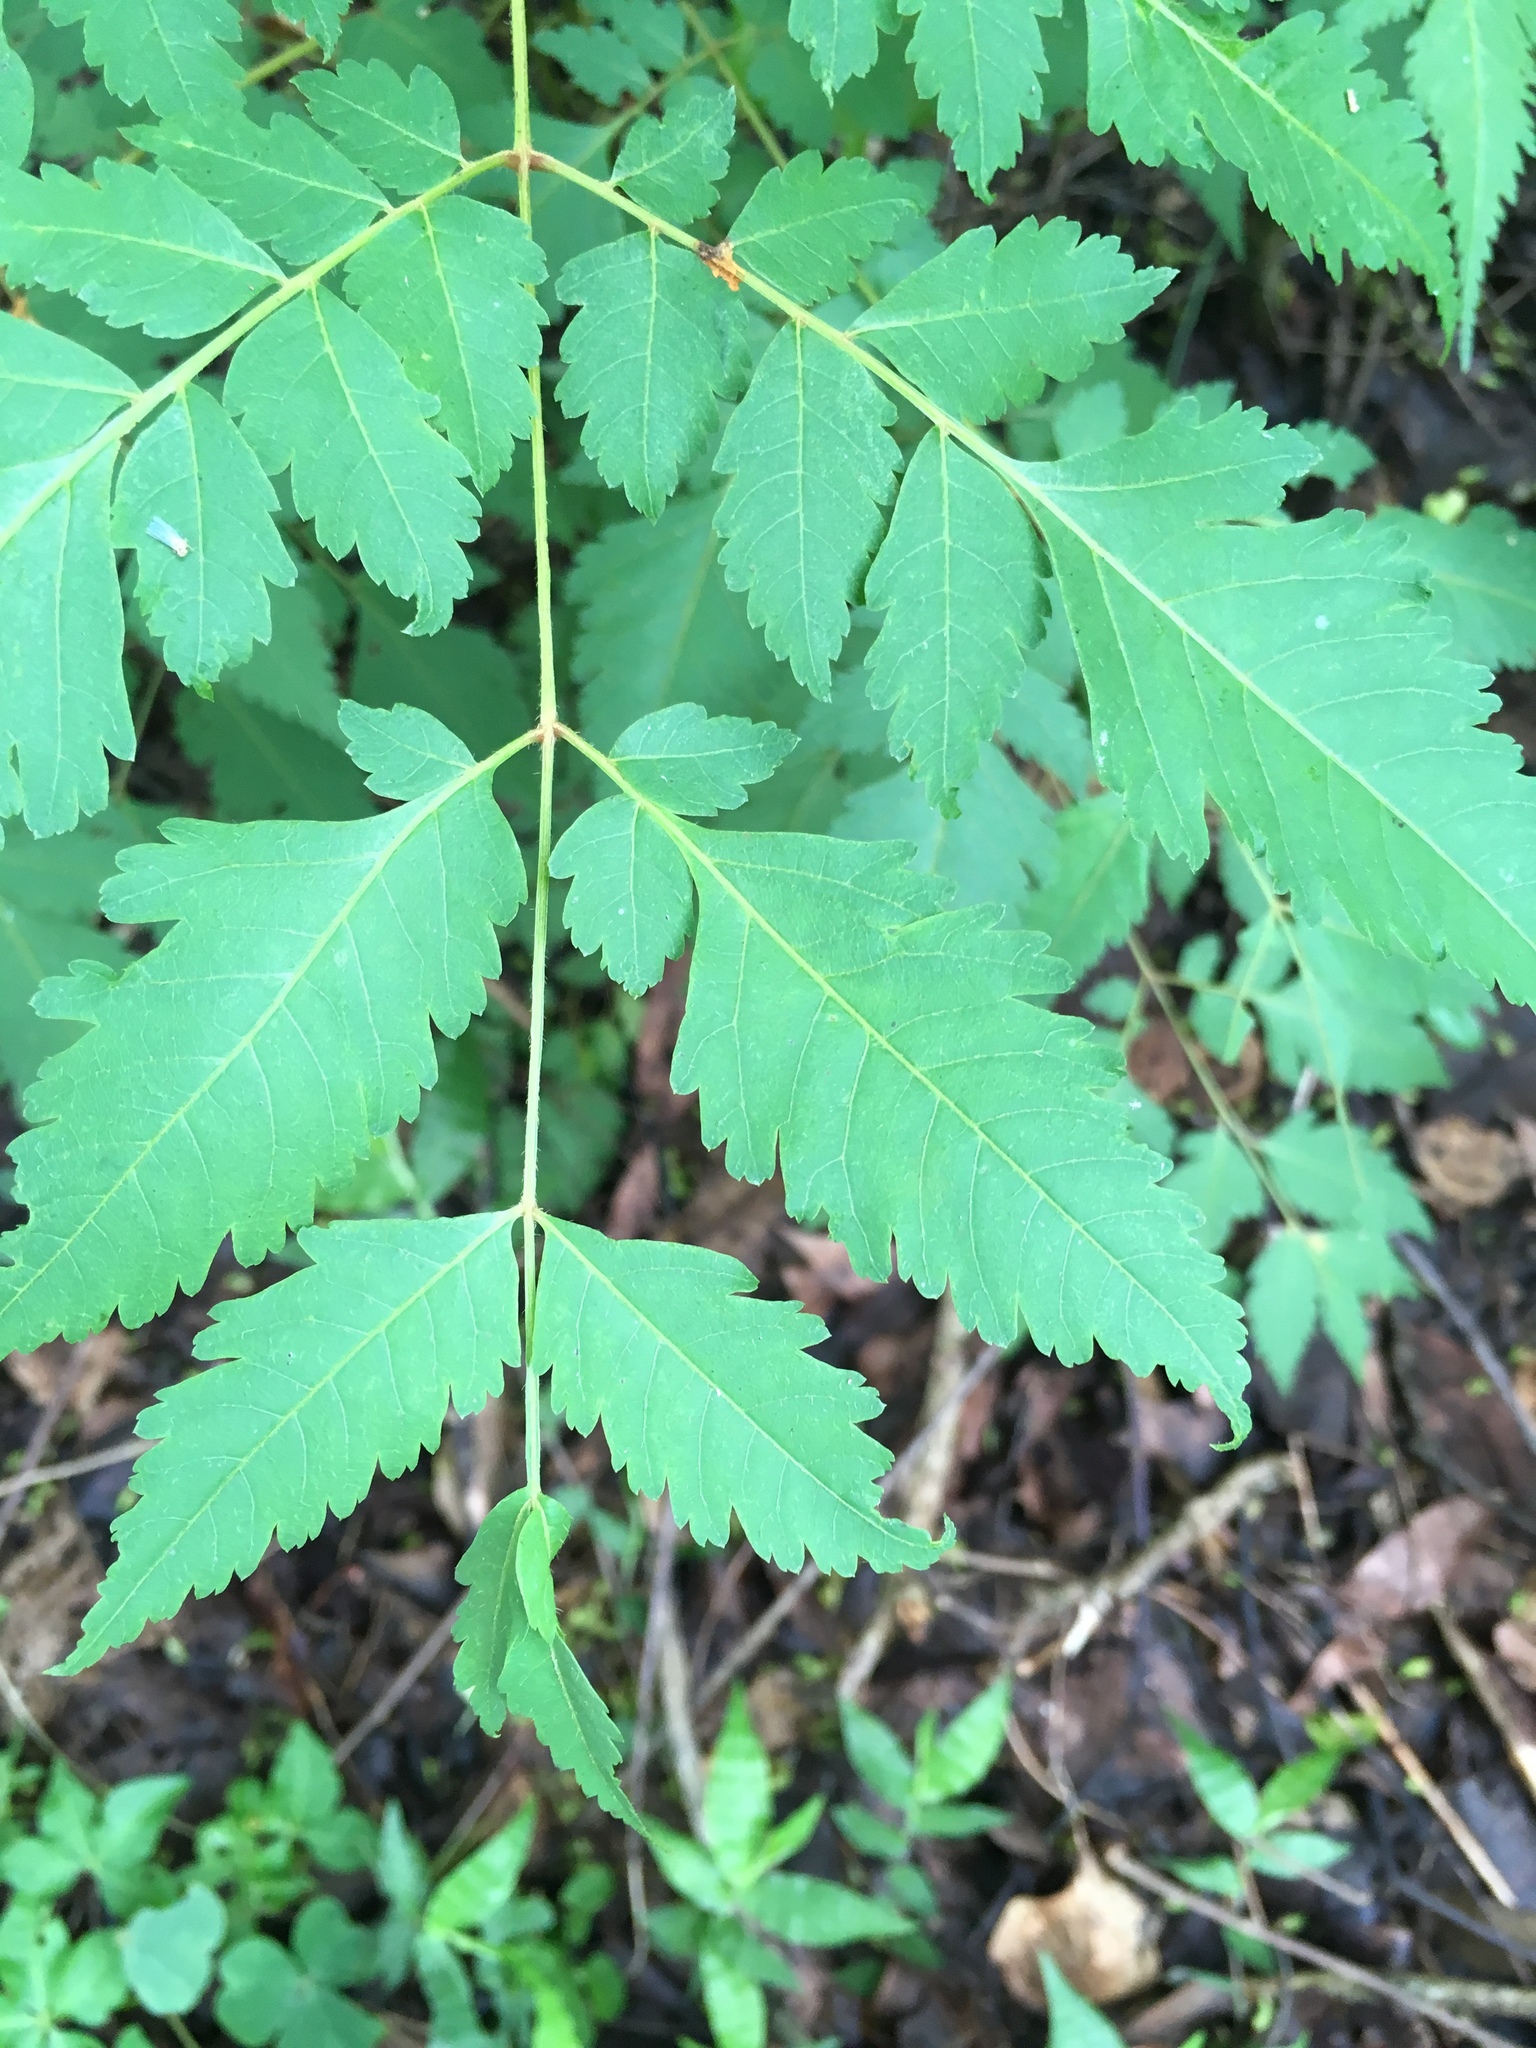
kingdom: Plantae
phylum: Tracheophyta
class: Magnoliopsida
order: Sapindales
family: Sapindaceae
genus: Koelreuteria
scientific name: Koelreuteria elegans
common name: Chinese flame tree
